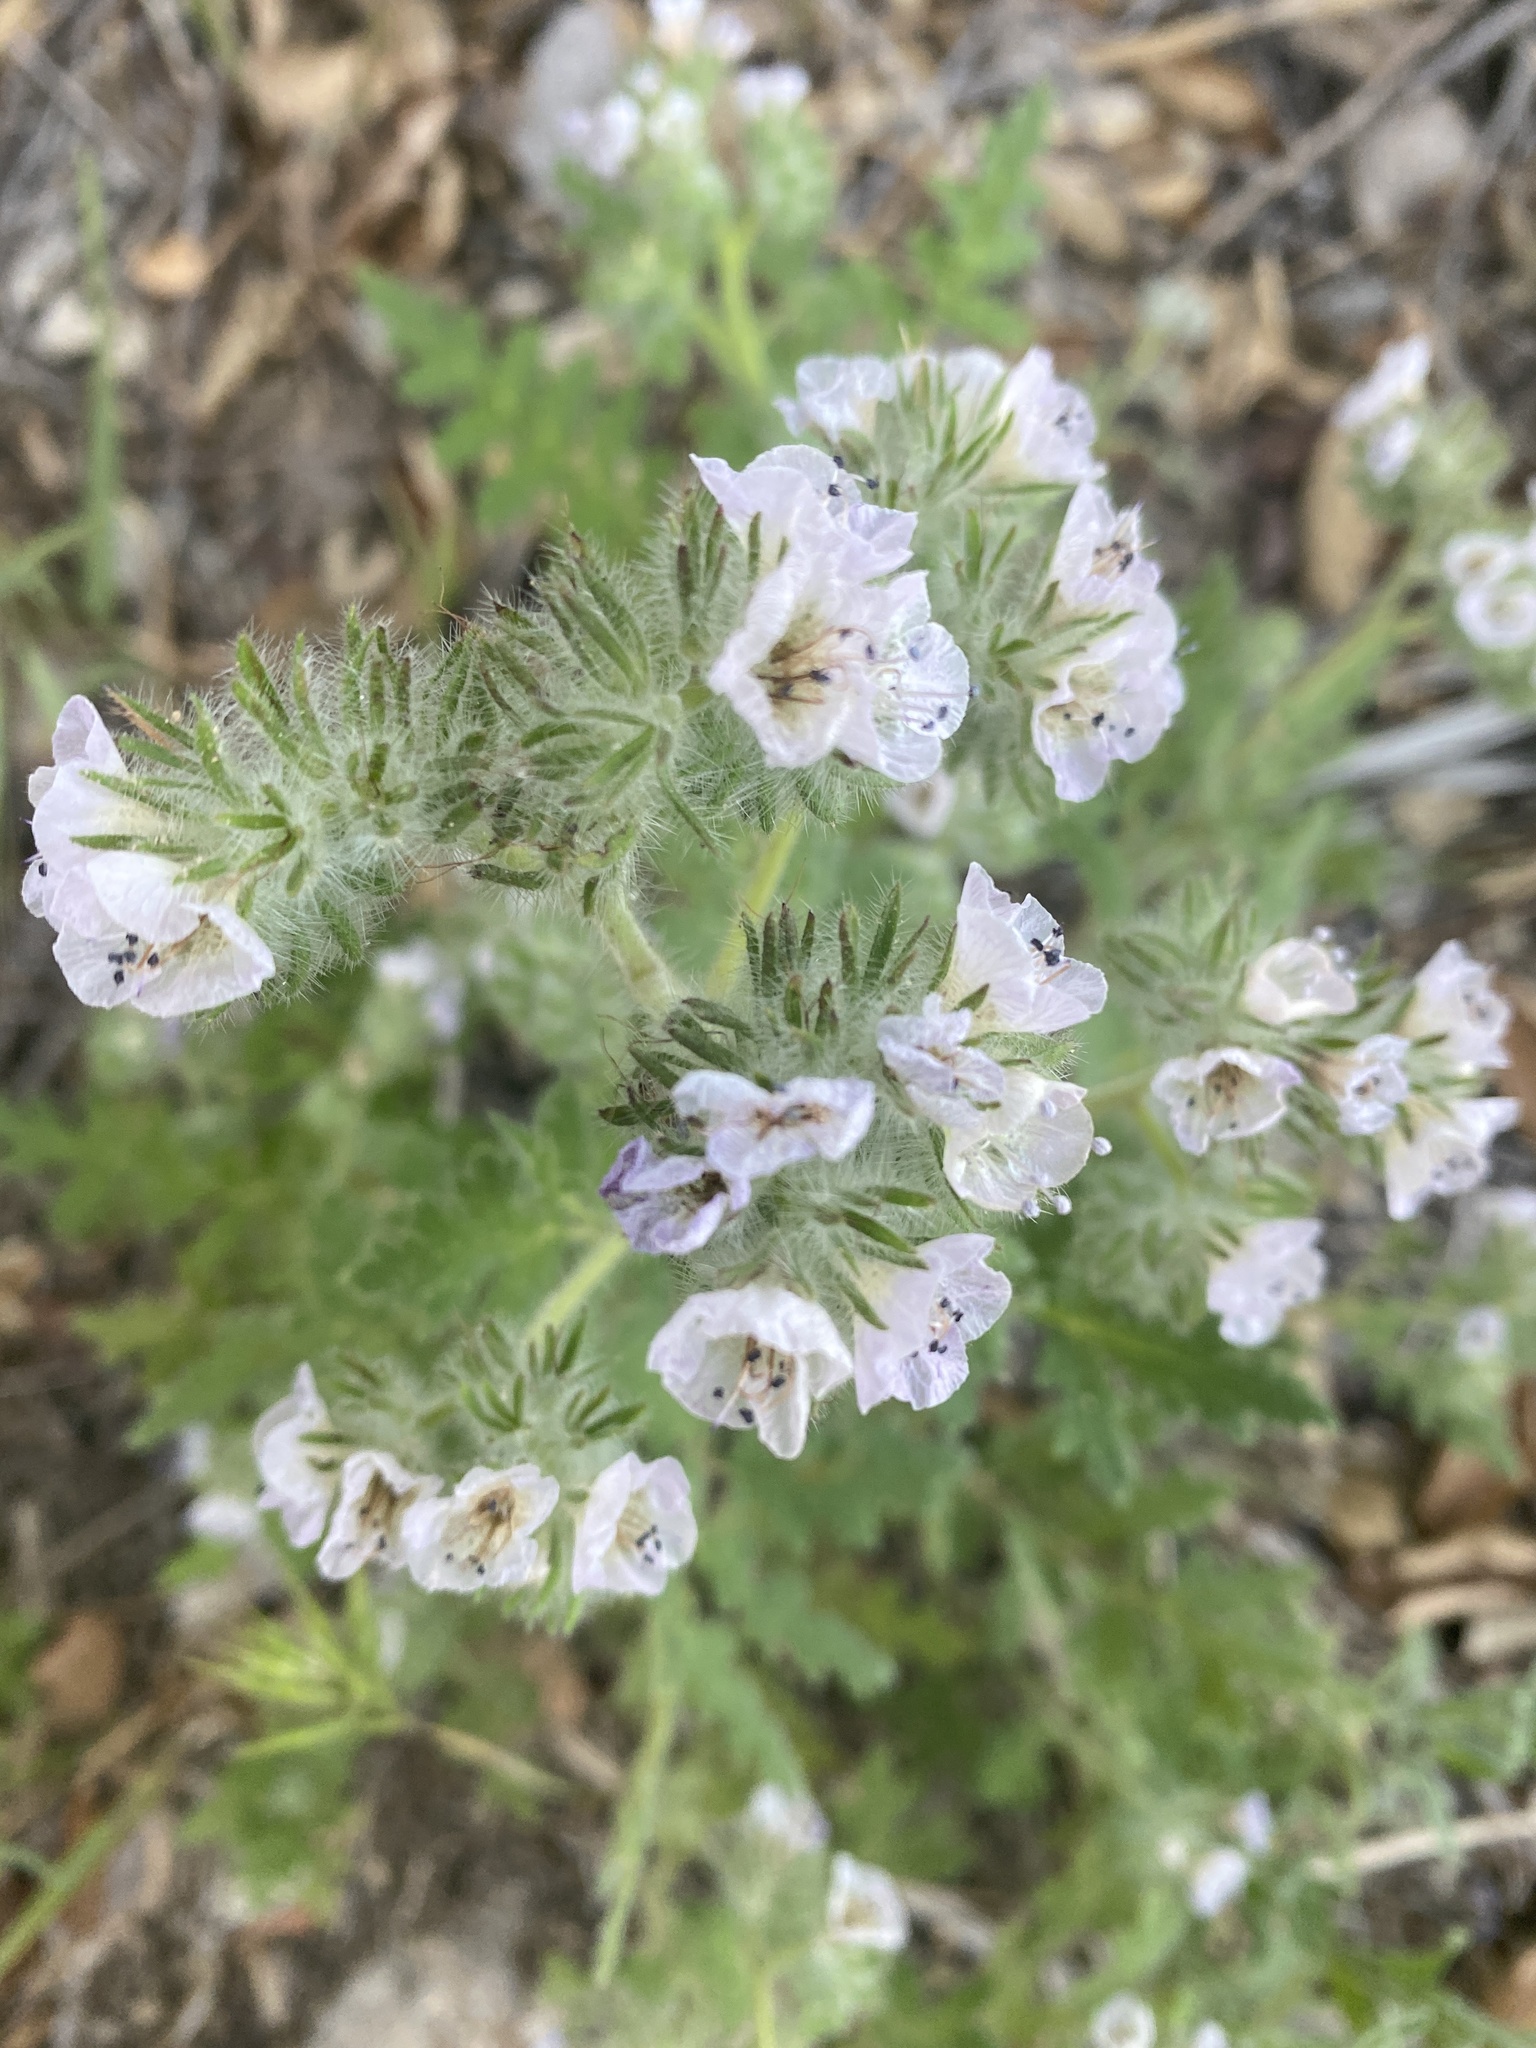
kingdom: Plantae
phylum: Tracheophyta
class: Magnoliopsida
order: Boraginales
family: Hydrophyllaceae
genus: Phacelia
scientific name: Phacelia cicutaria
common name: Caterpillar phacelia
